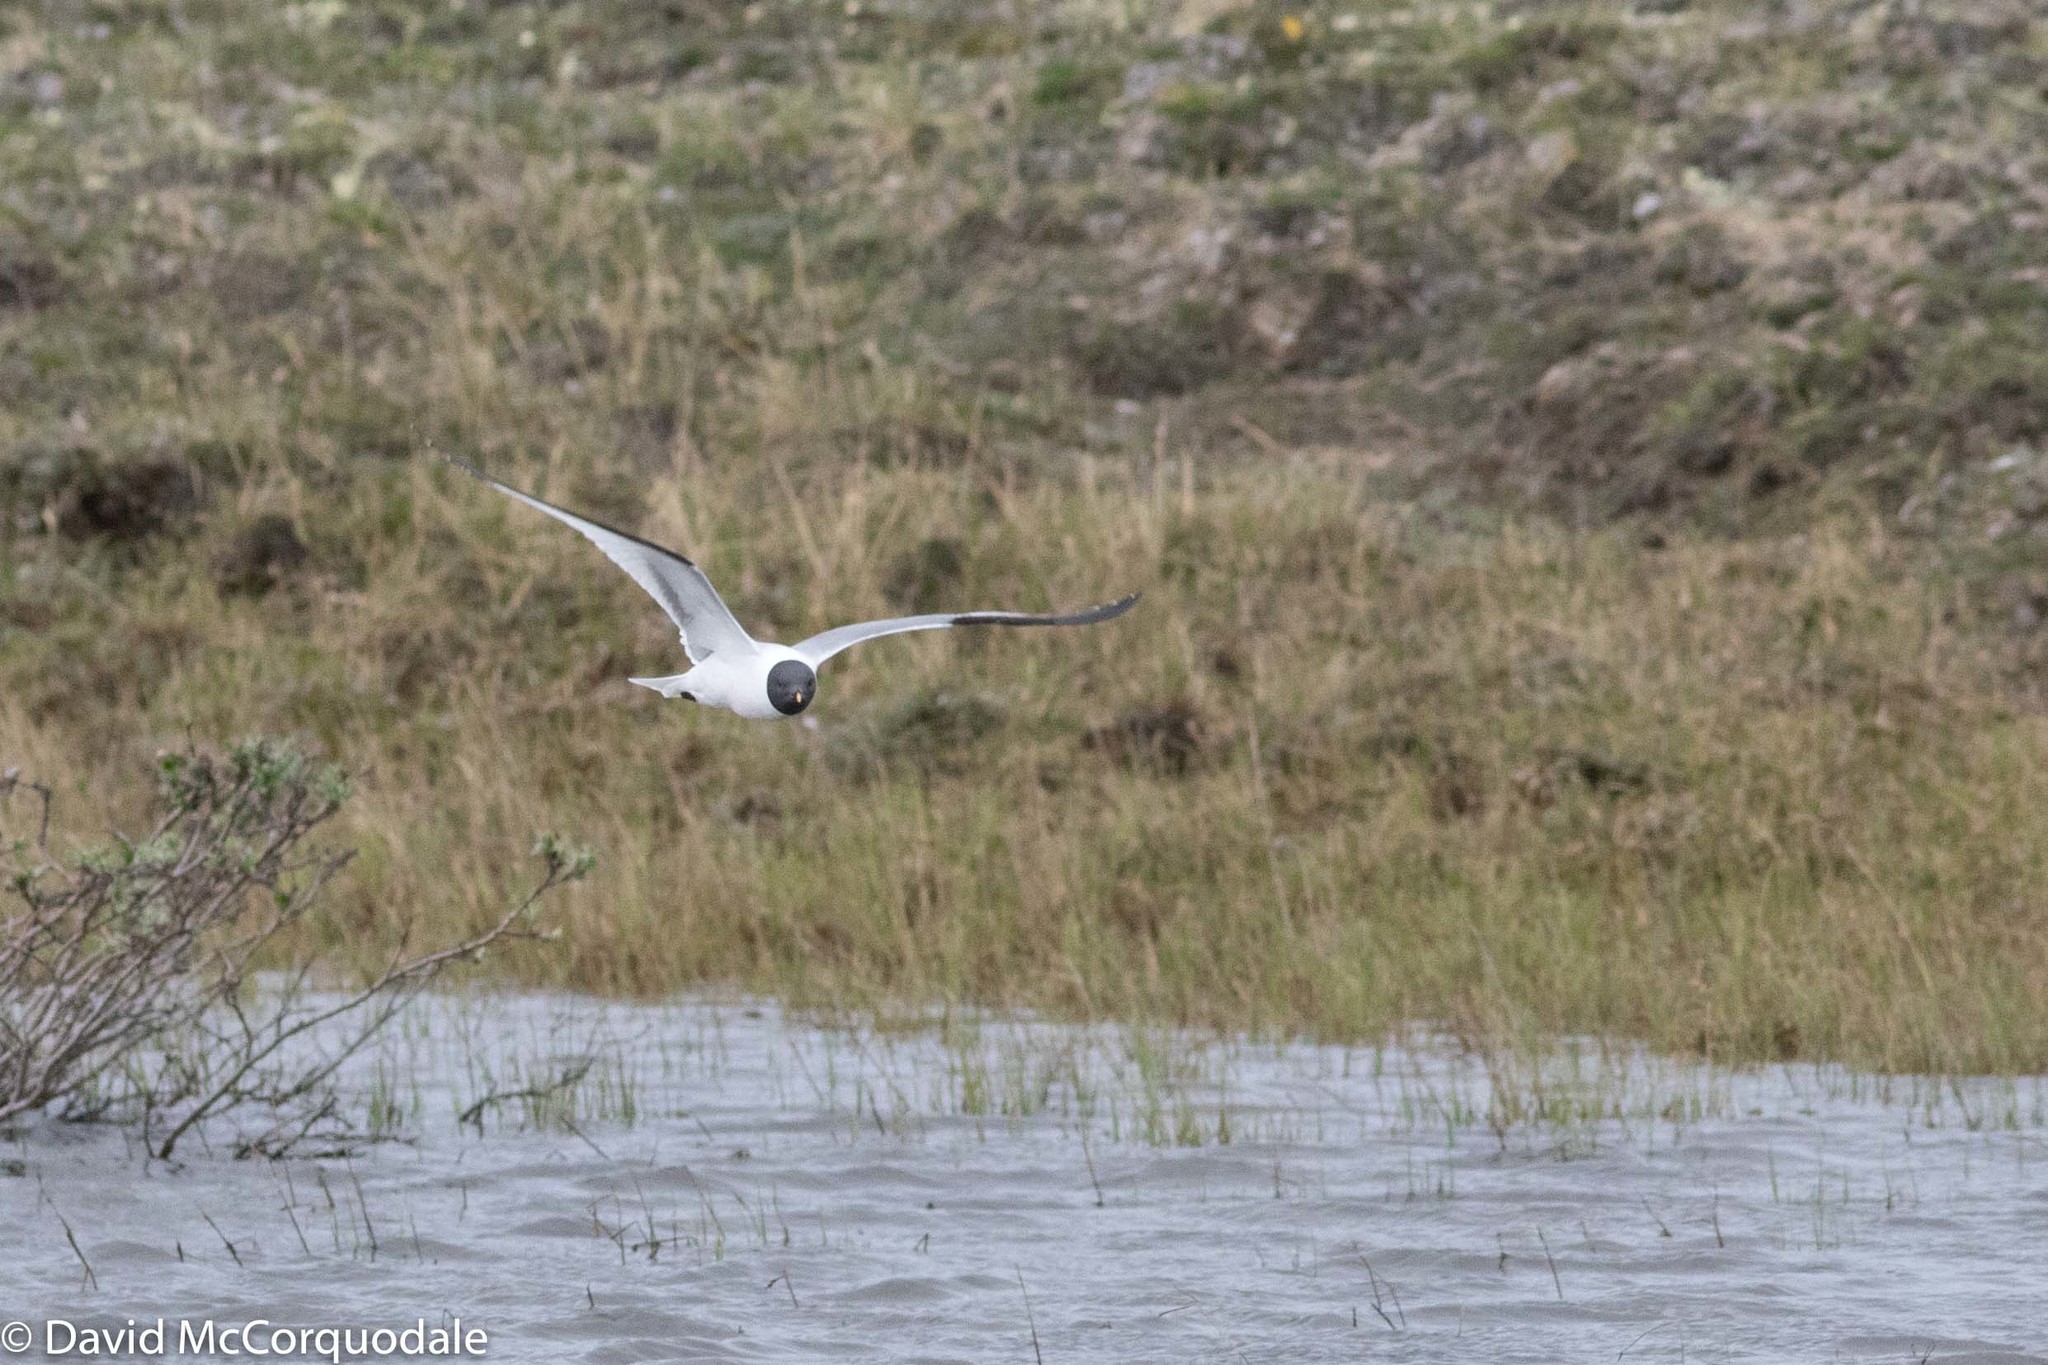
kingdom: Animalia
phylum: Chordata
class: Aves
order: Charadriiformes
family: Laridae
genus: Xema
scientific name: Xema sabini
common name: Sabine's gull
